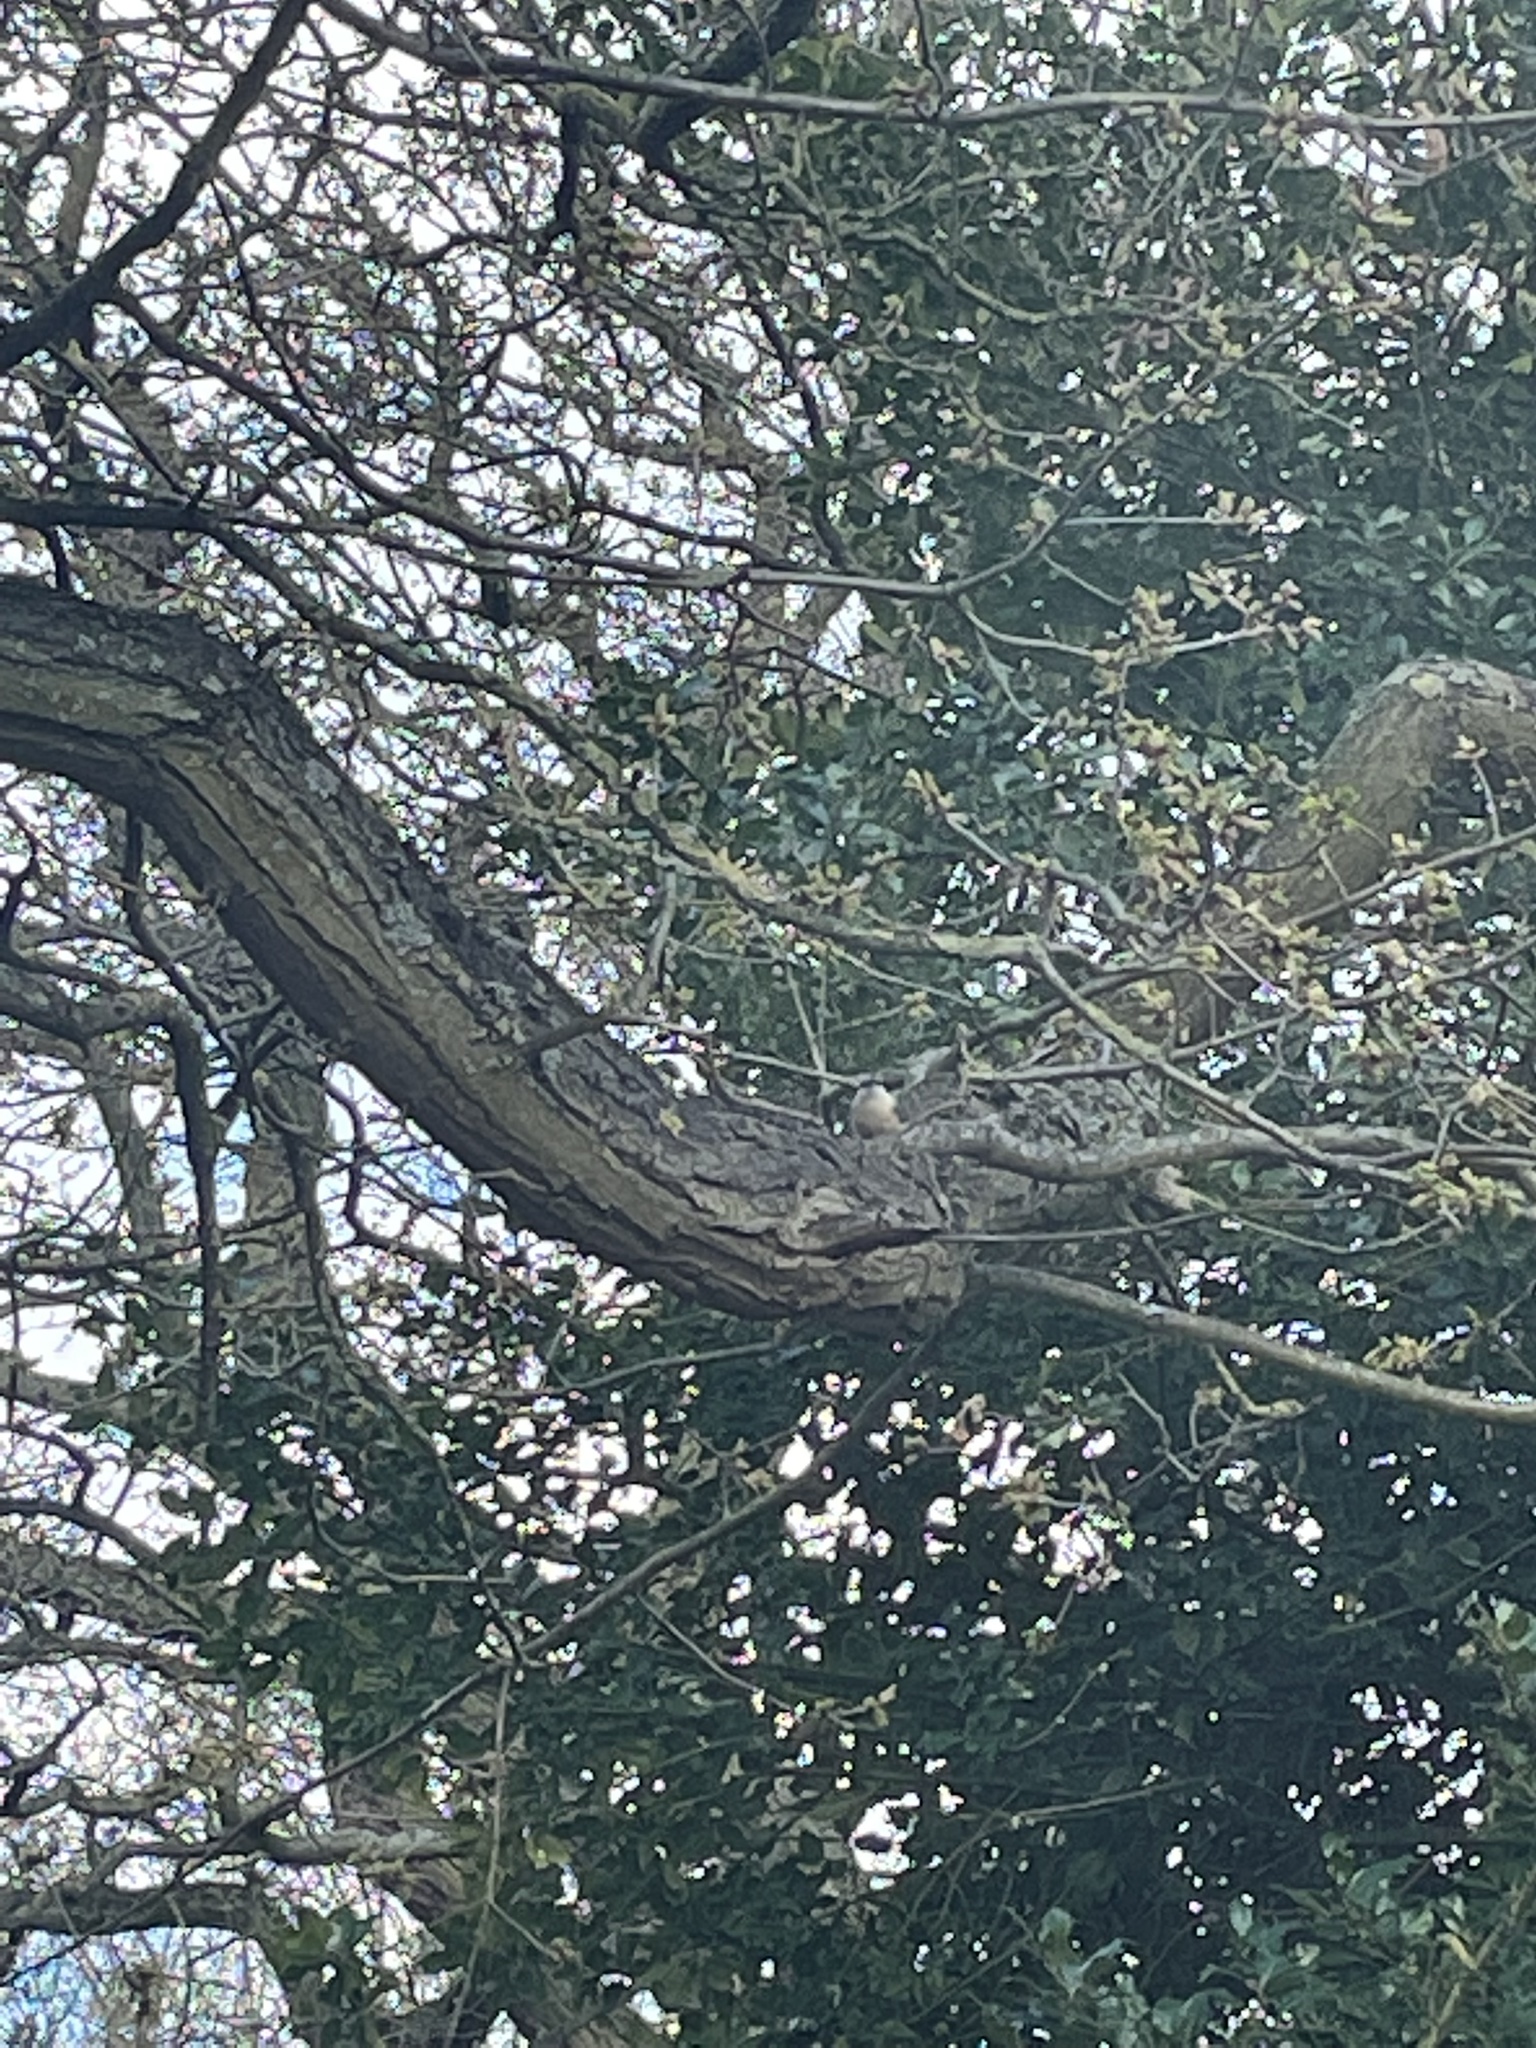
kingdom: Animalia
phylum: Chordata
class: Aves
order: Passeriformes
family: Sittidae
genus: Sitta
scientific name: Sitta europaea
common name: Eurasian nuthatch
